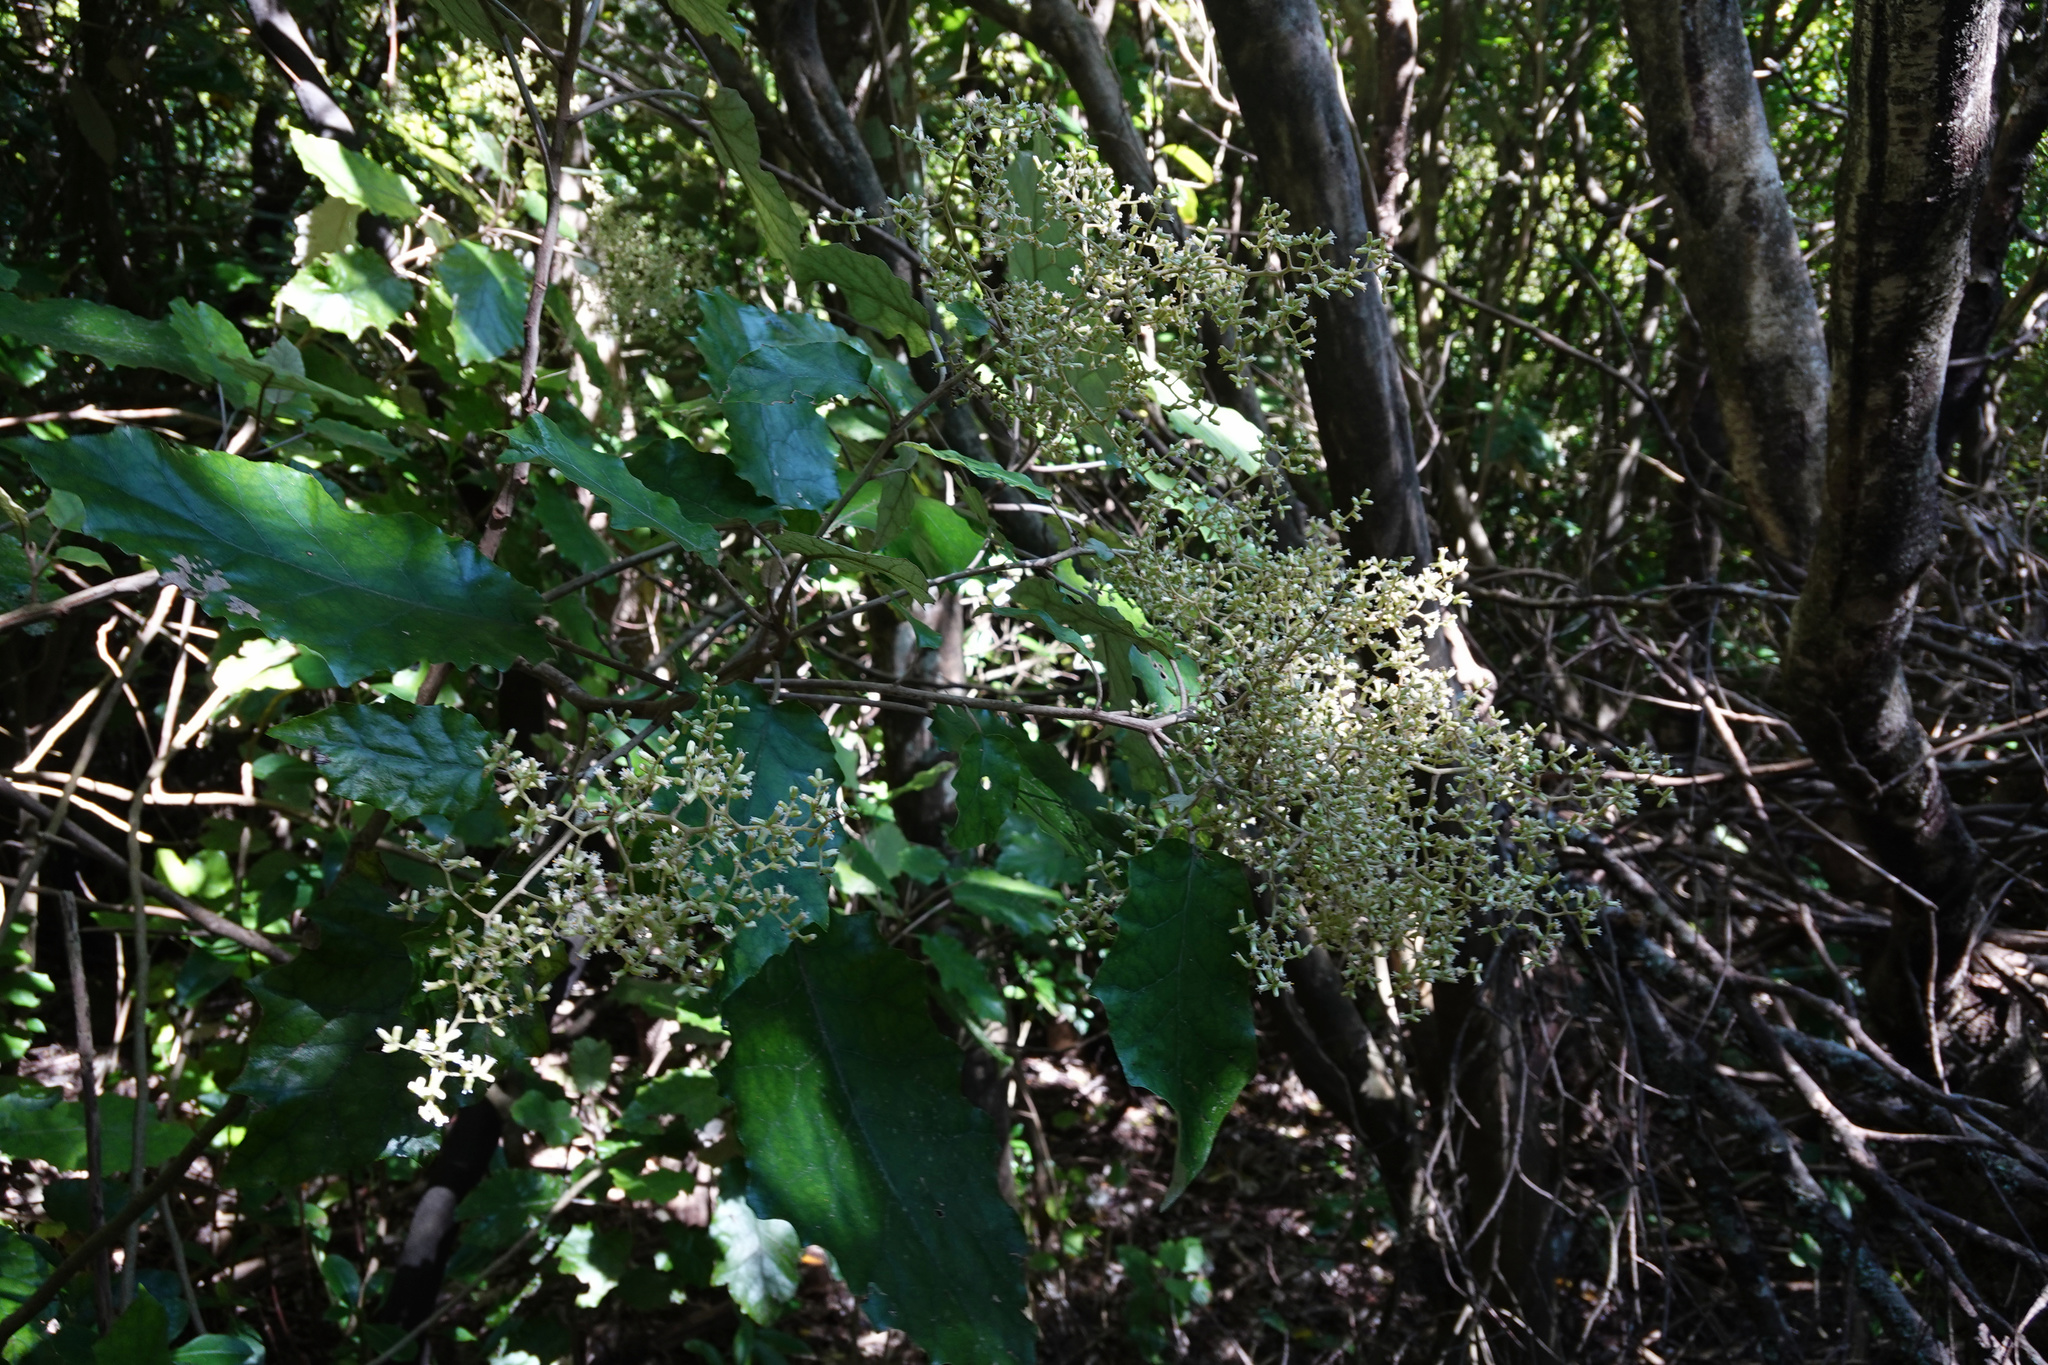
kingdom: Plantae
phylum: Tracheophyta
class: Magnoliopsida
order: Asterales
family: Asteraceae
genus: Brachyglottis
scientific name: Brachyglottis repanda
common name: Hedge ragwort
